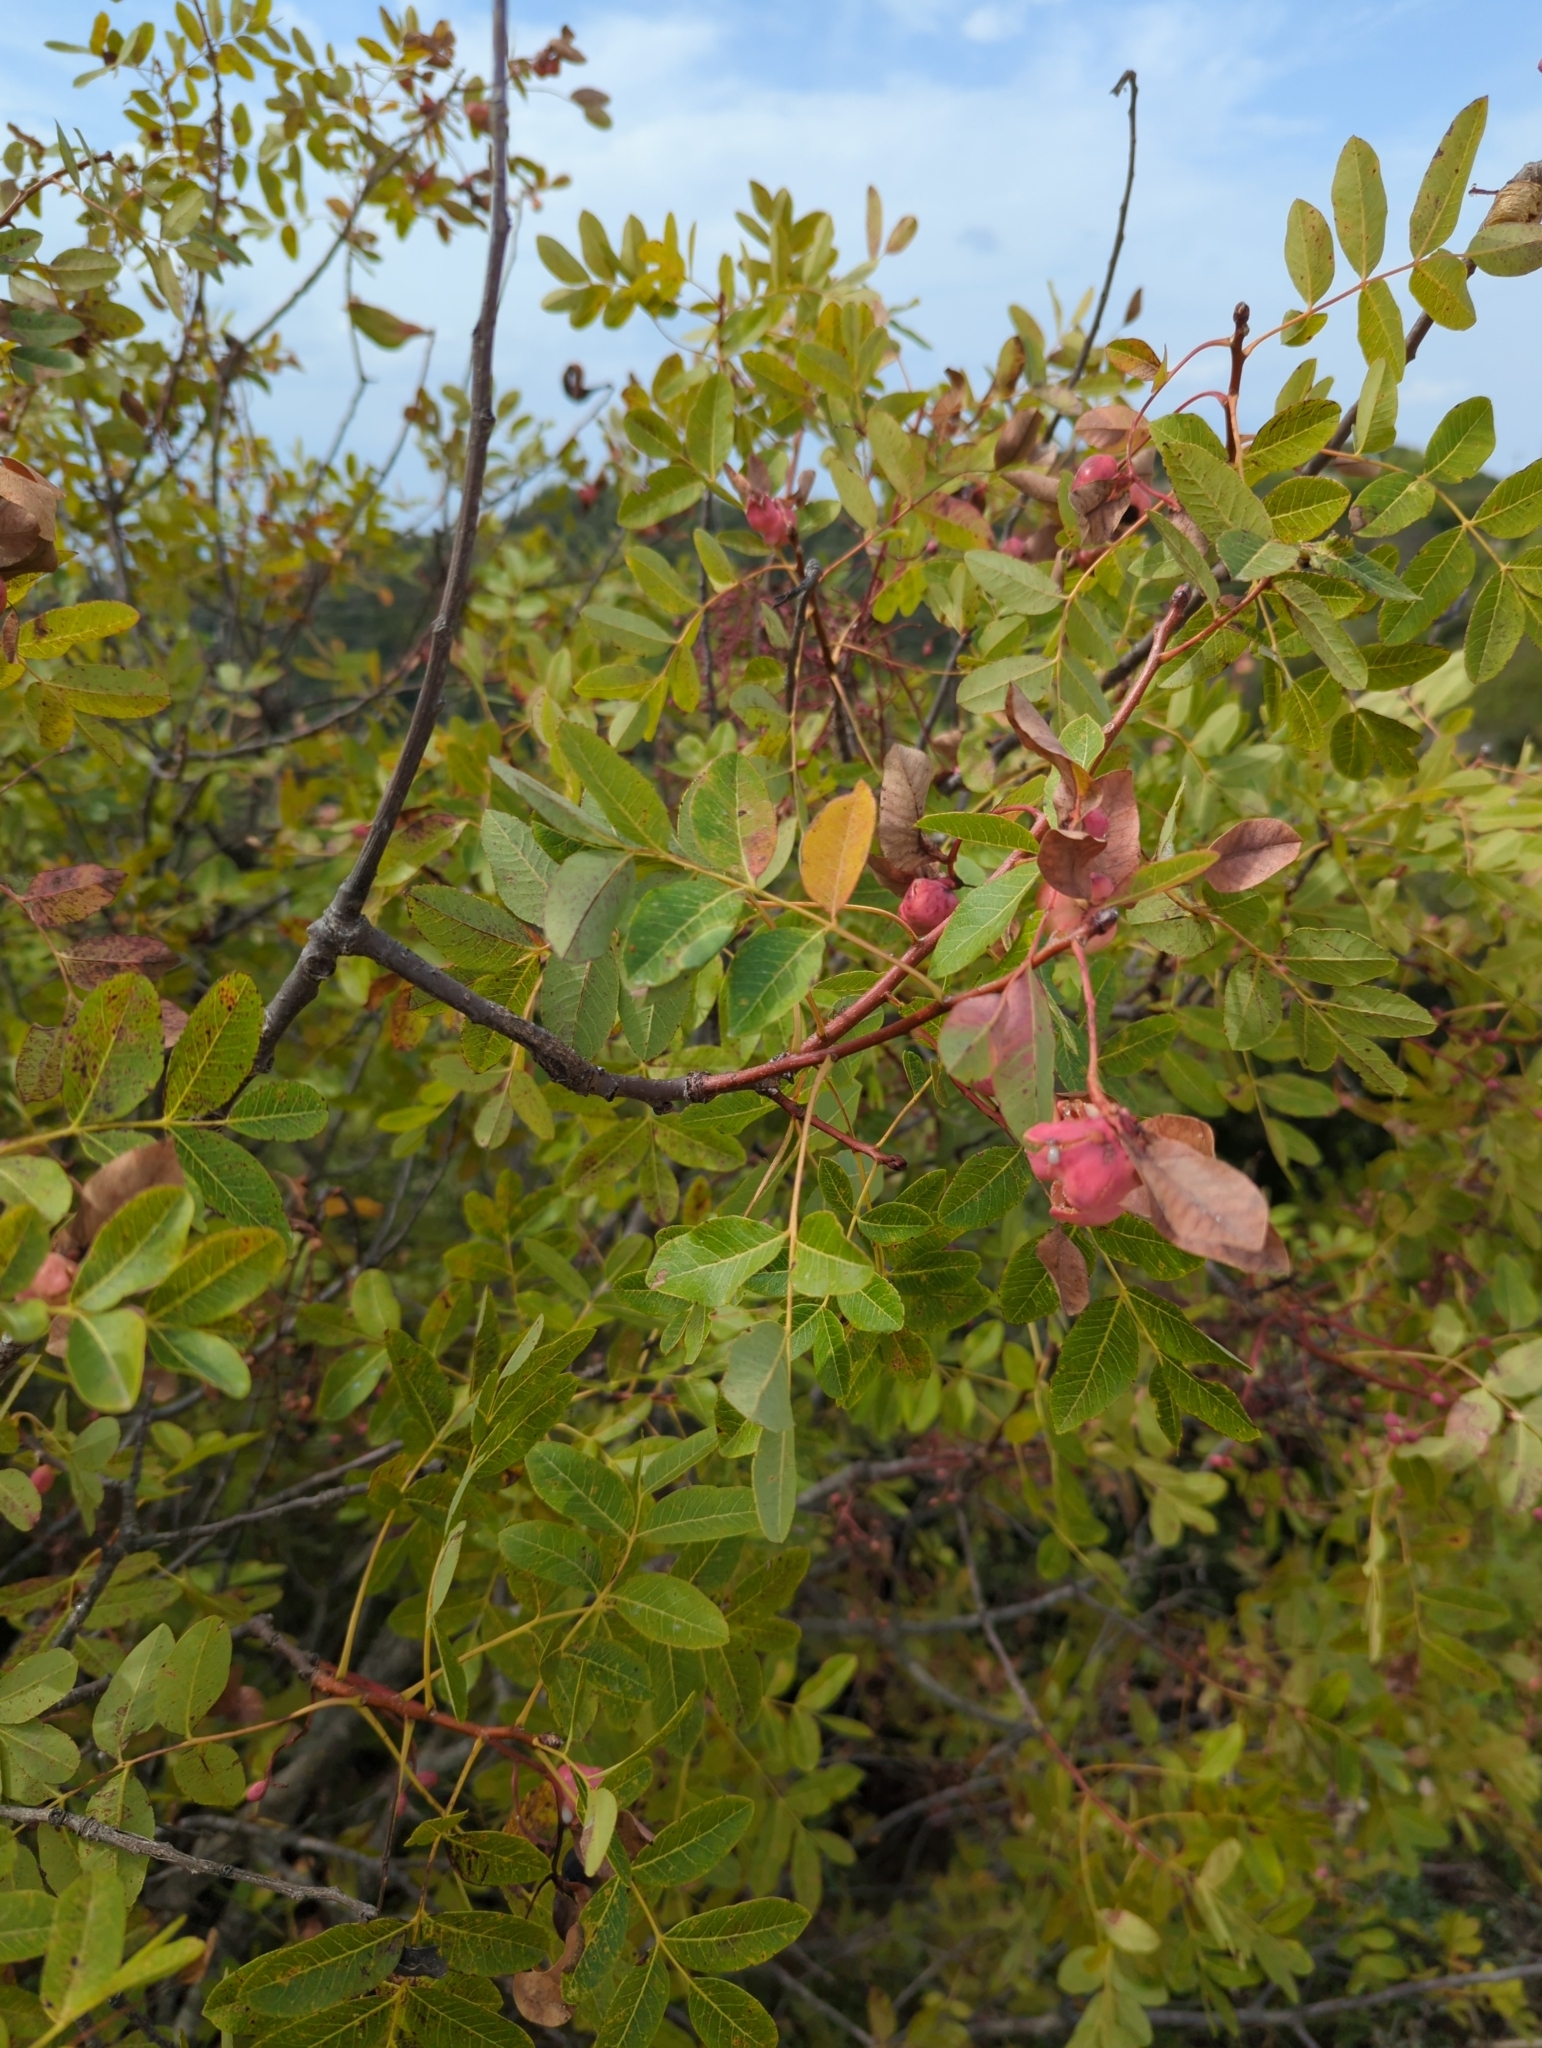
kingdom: Animalia
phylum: Arthropoda
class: Insecta
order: Hemiptera
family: Aphididae
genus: Geoica
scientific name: Geoica utricularia
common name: Aphid
